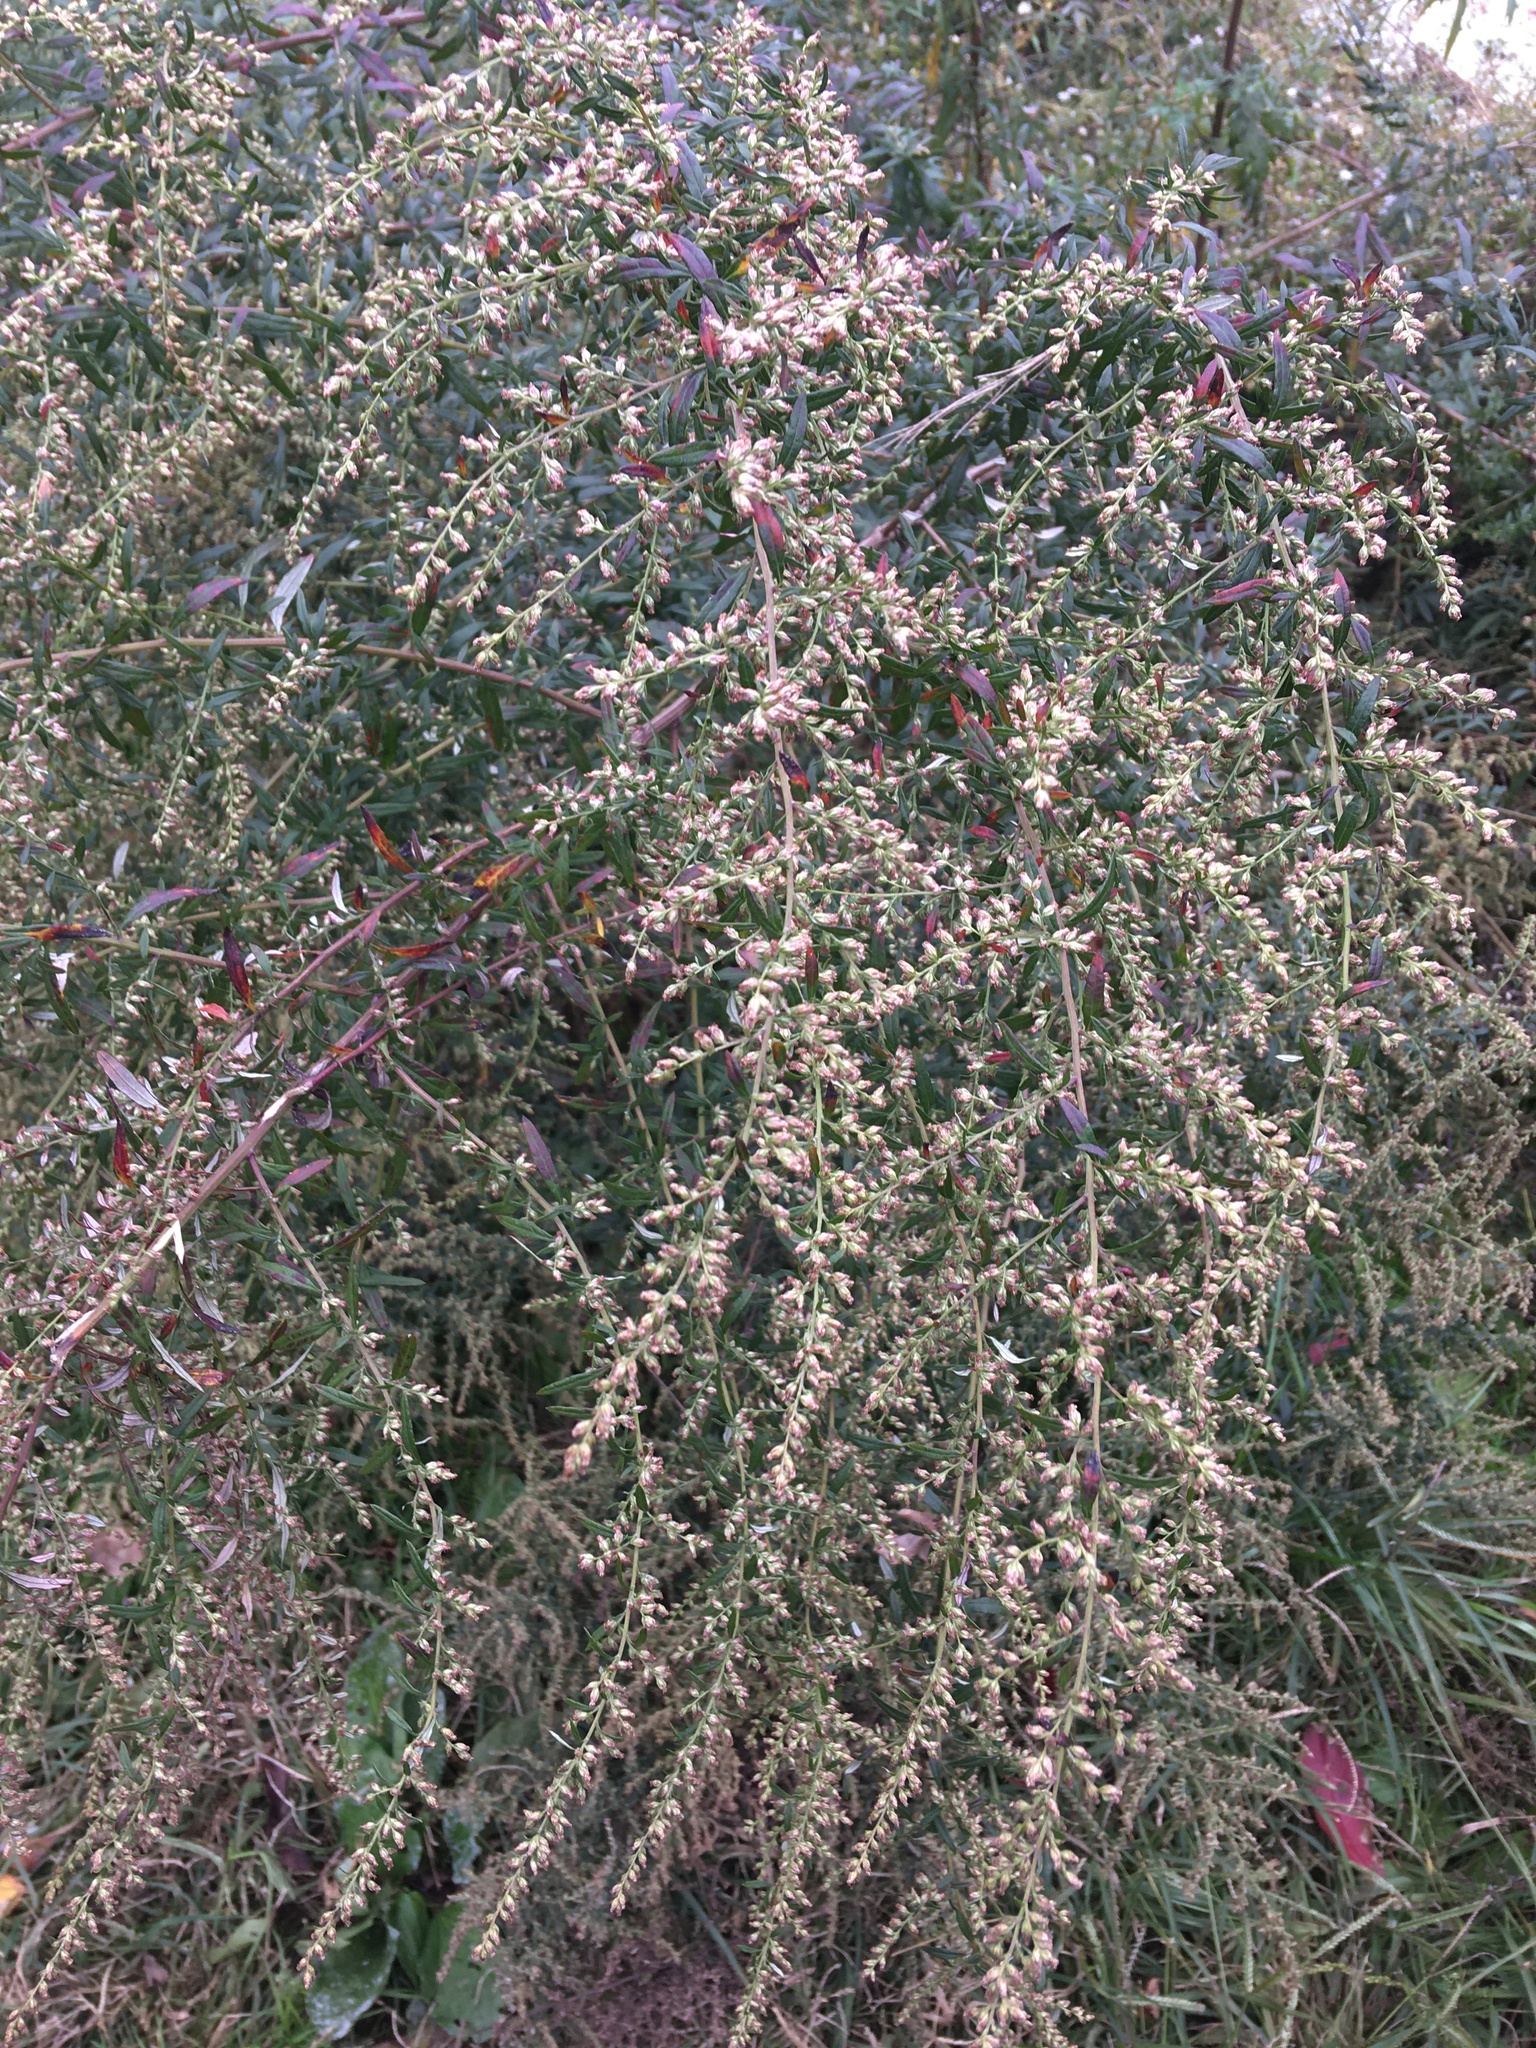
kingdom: Plantae
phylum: Tracheophyta
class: Magnoliopsida
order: Asterales
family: Asteraceae
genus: Artemisia
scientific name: Artemisia vulgaris
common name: Mugwort
